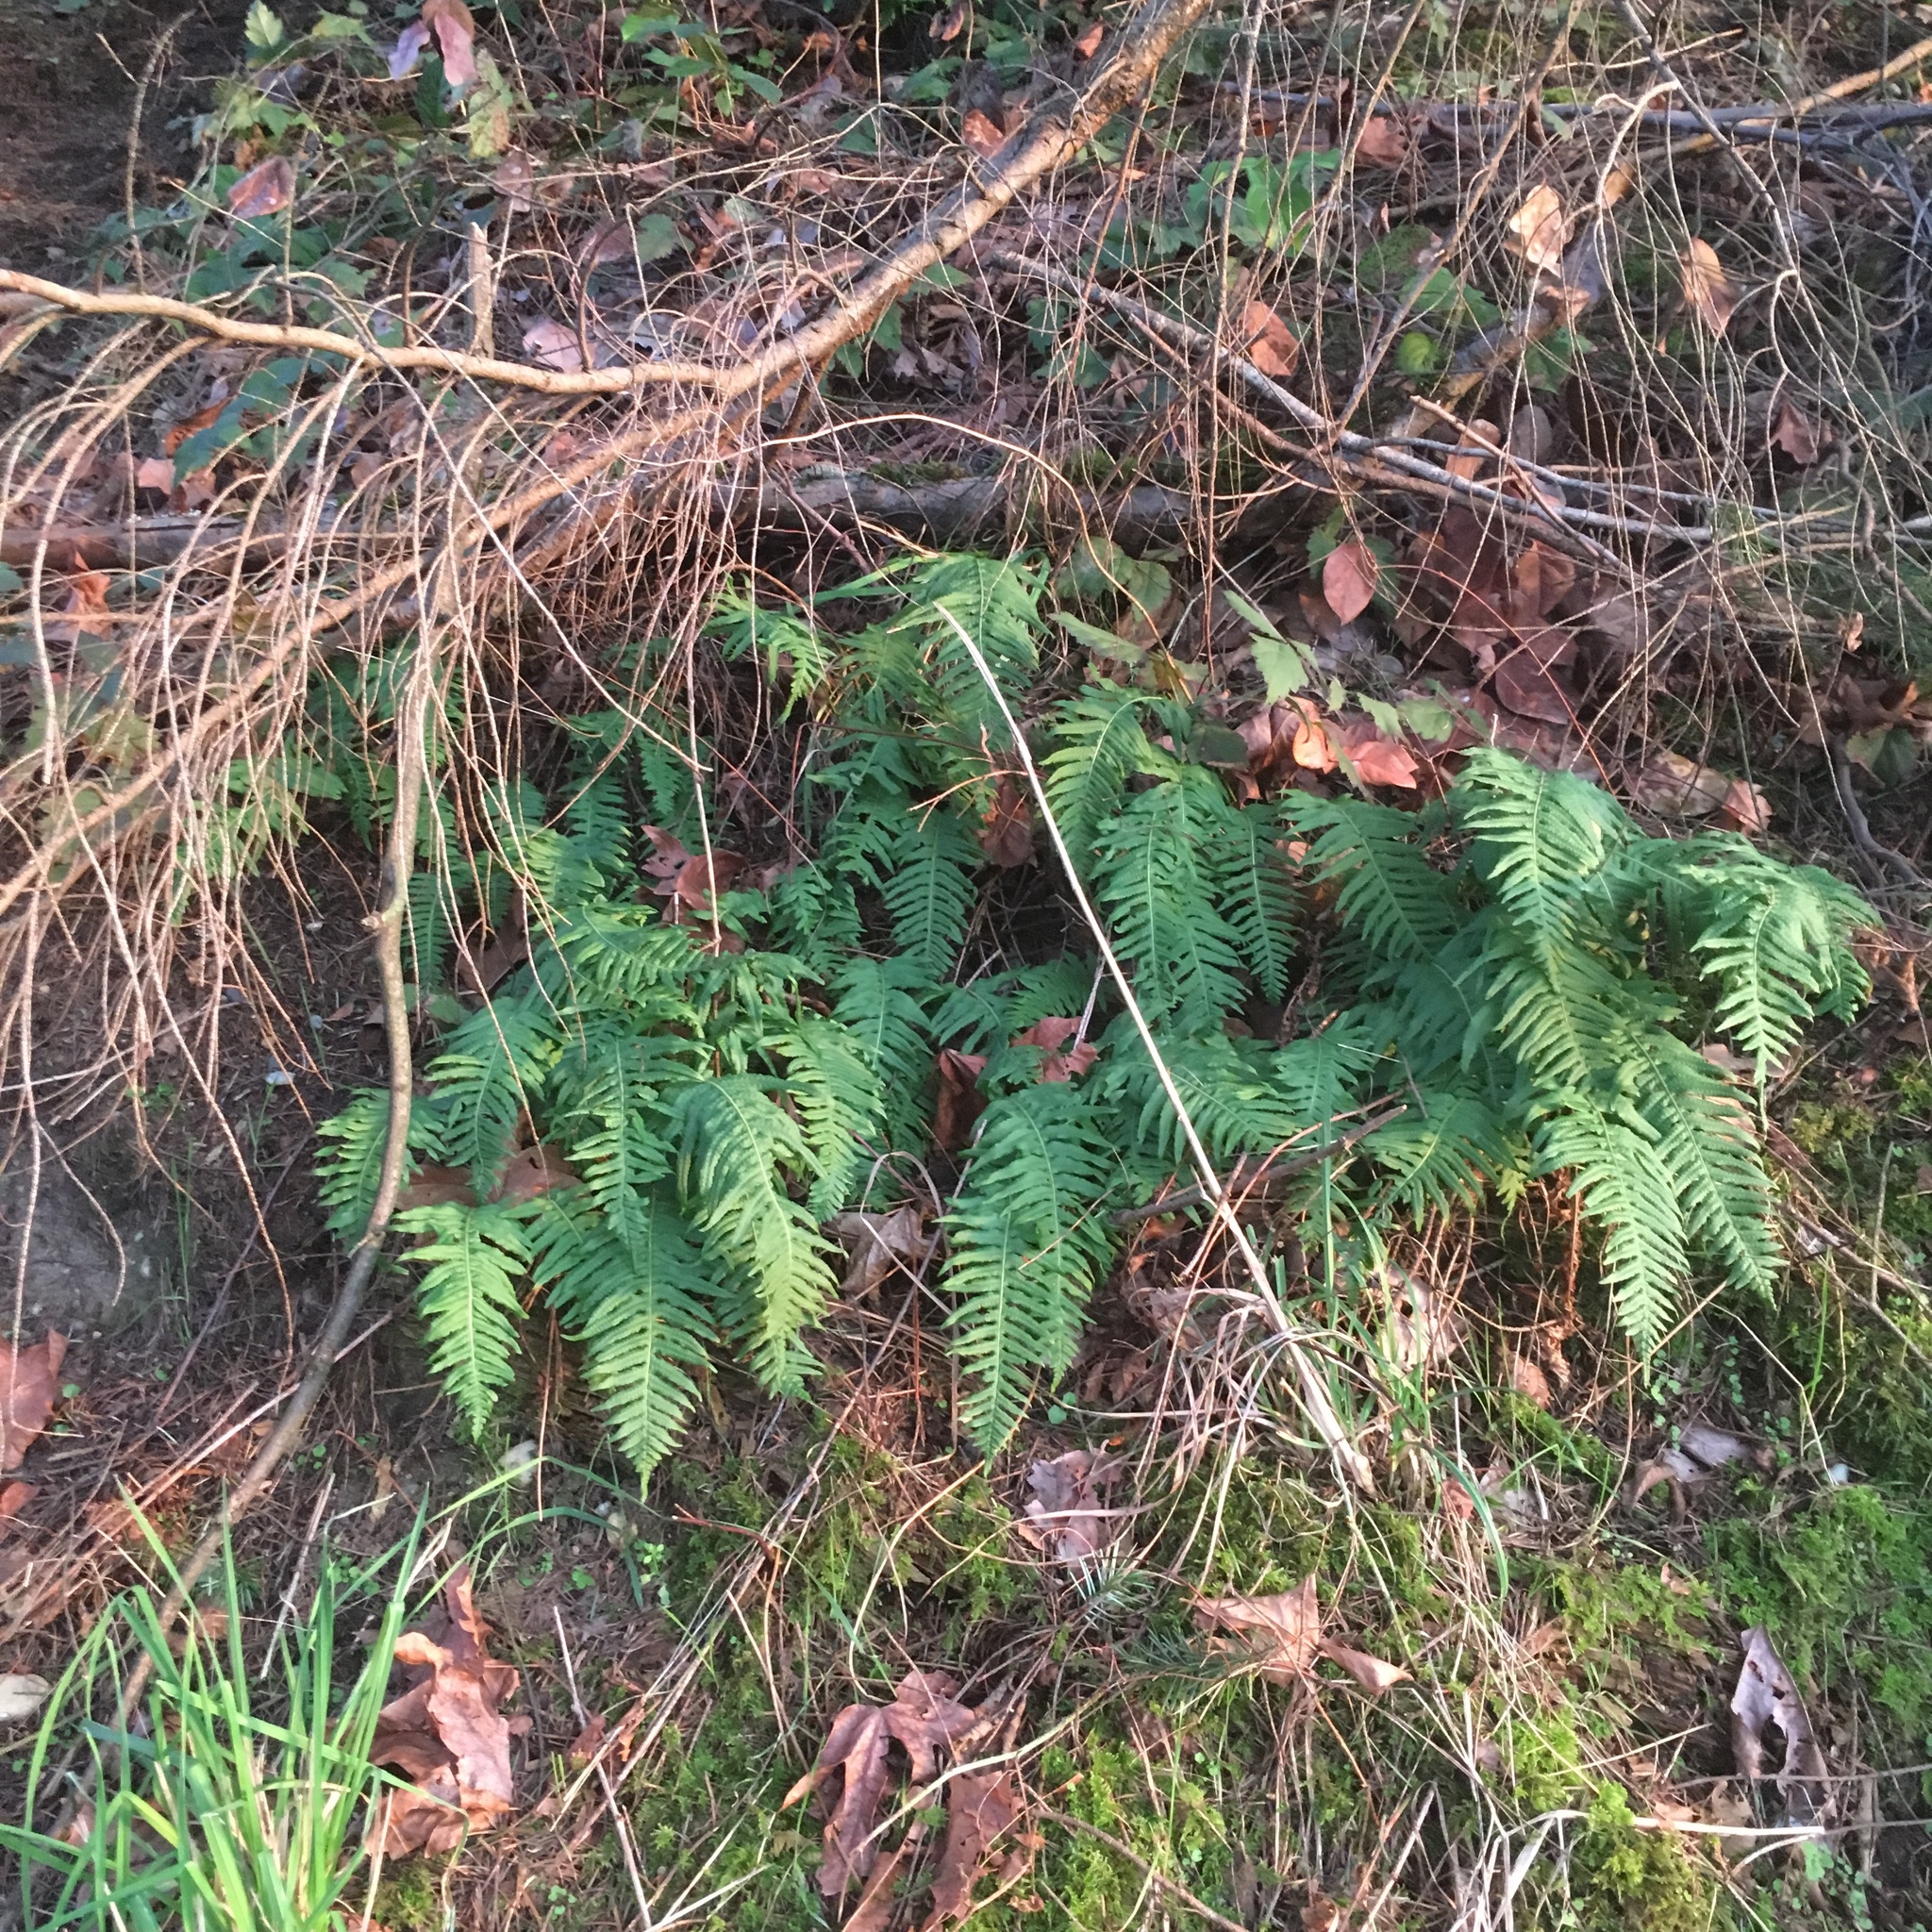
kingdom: Plantae
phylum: Tracheophyta
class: Polypodiopsida
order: Polypodiales
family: Polypodiaceae
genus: Polypodium
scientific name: Polypodium glycyrrhiza
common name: Licorice fern
